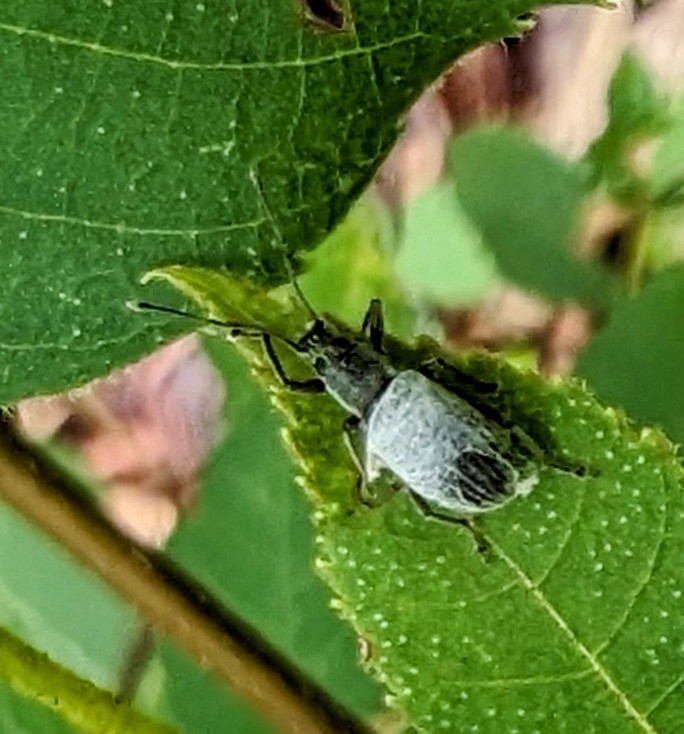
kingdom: Animalia
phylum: Arthropoda
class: Insecta
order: Coleoptera
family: Curculionidae
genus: Cyrtepistomus
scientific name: Cyrtepistomus castaneus
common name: Weevil
